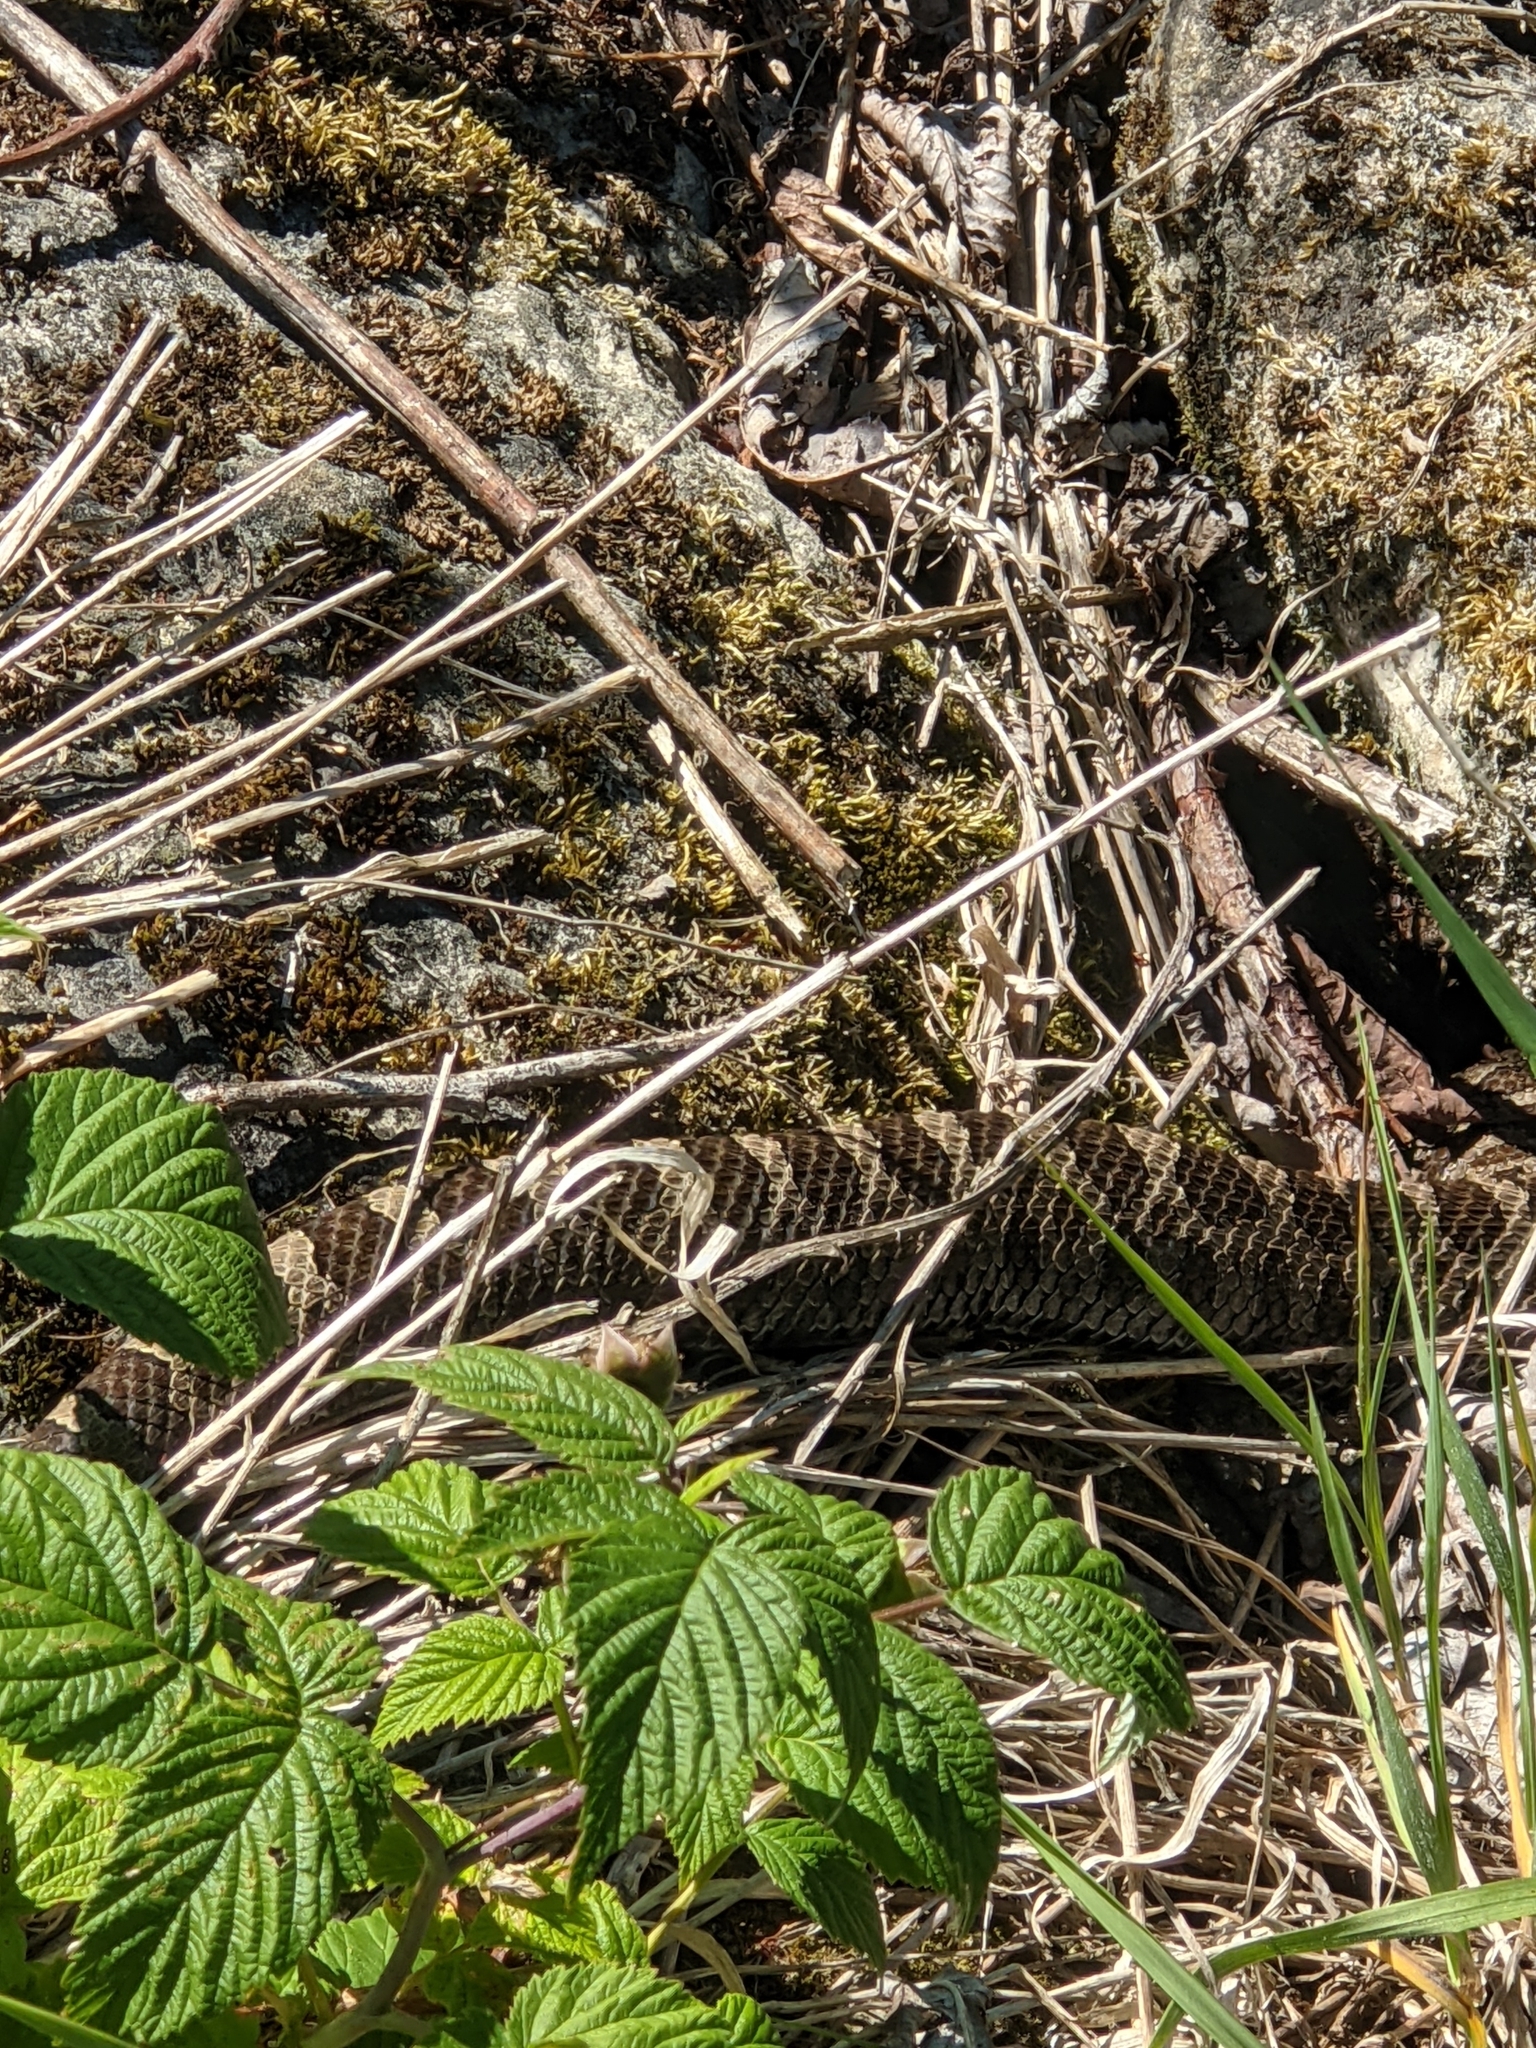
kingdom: Animalia
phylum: Chordata
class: Squamata
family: Viperidae
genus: Sistrurus
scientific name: Sistrurus catenatus
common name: Massasauga
